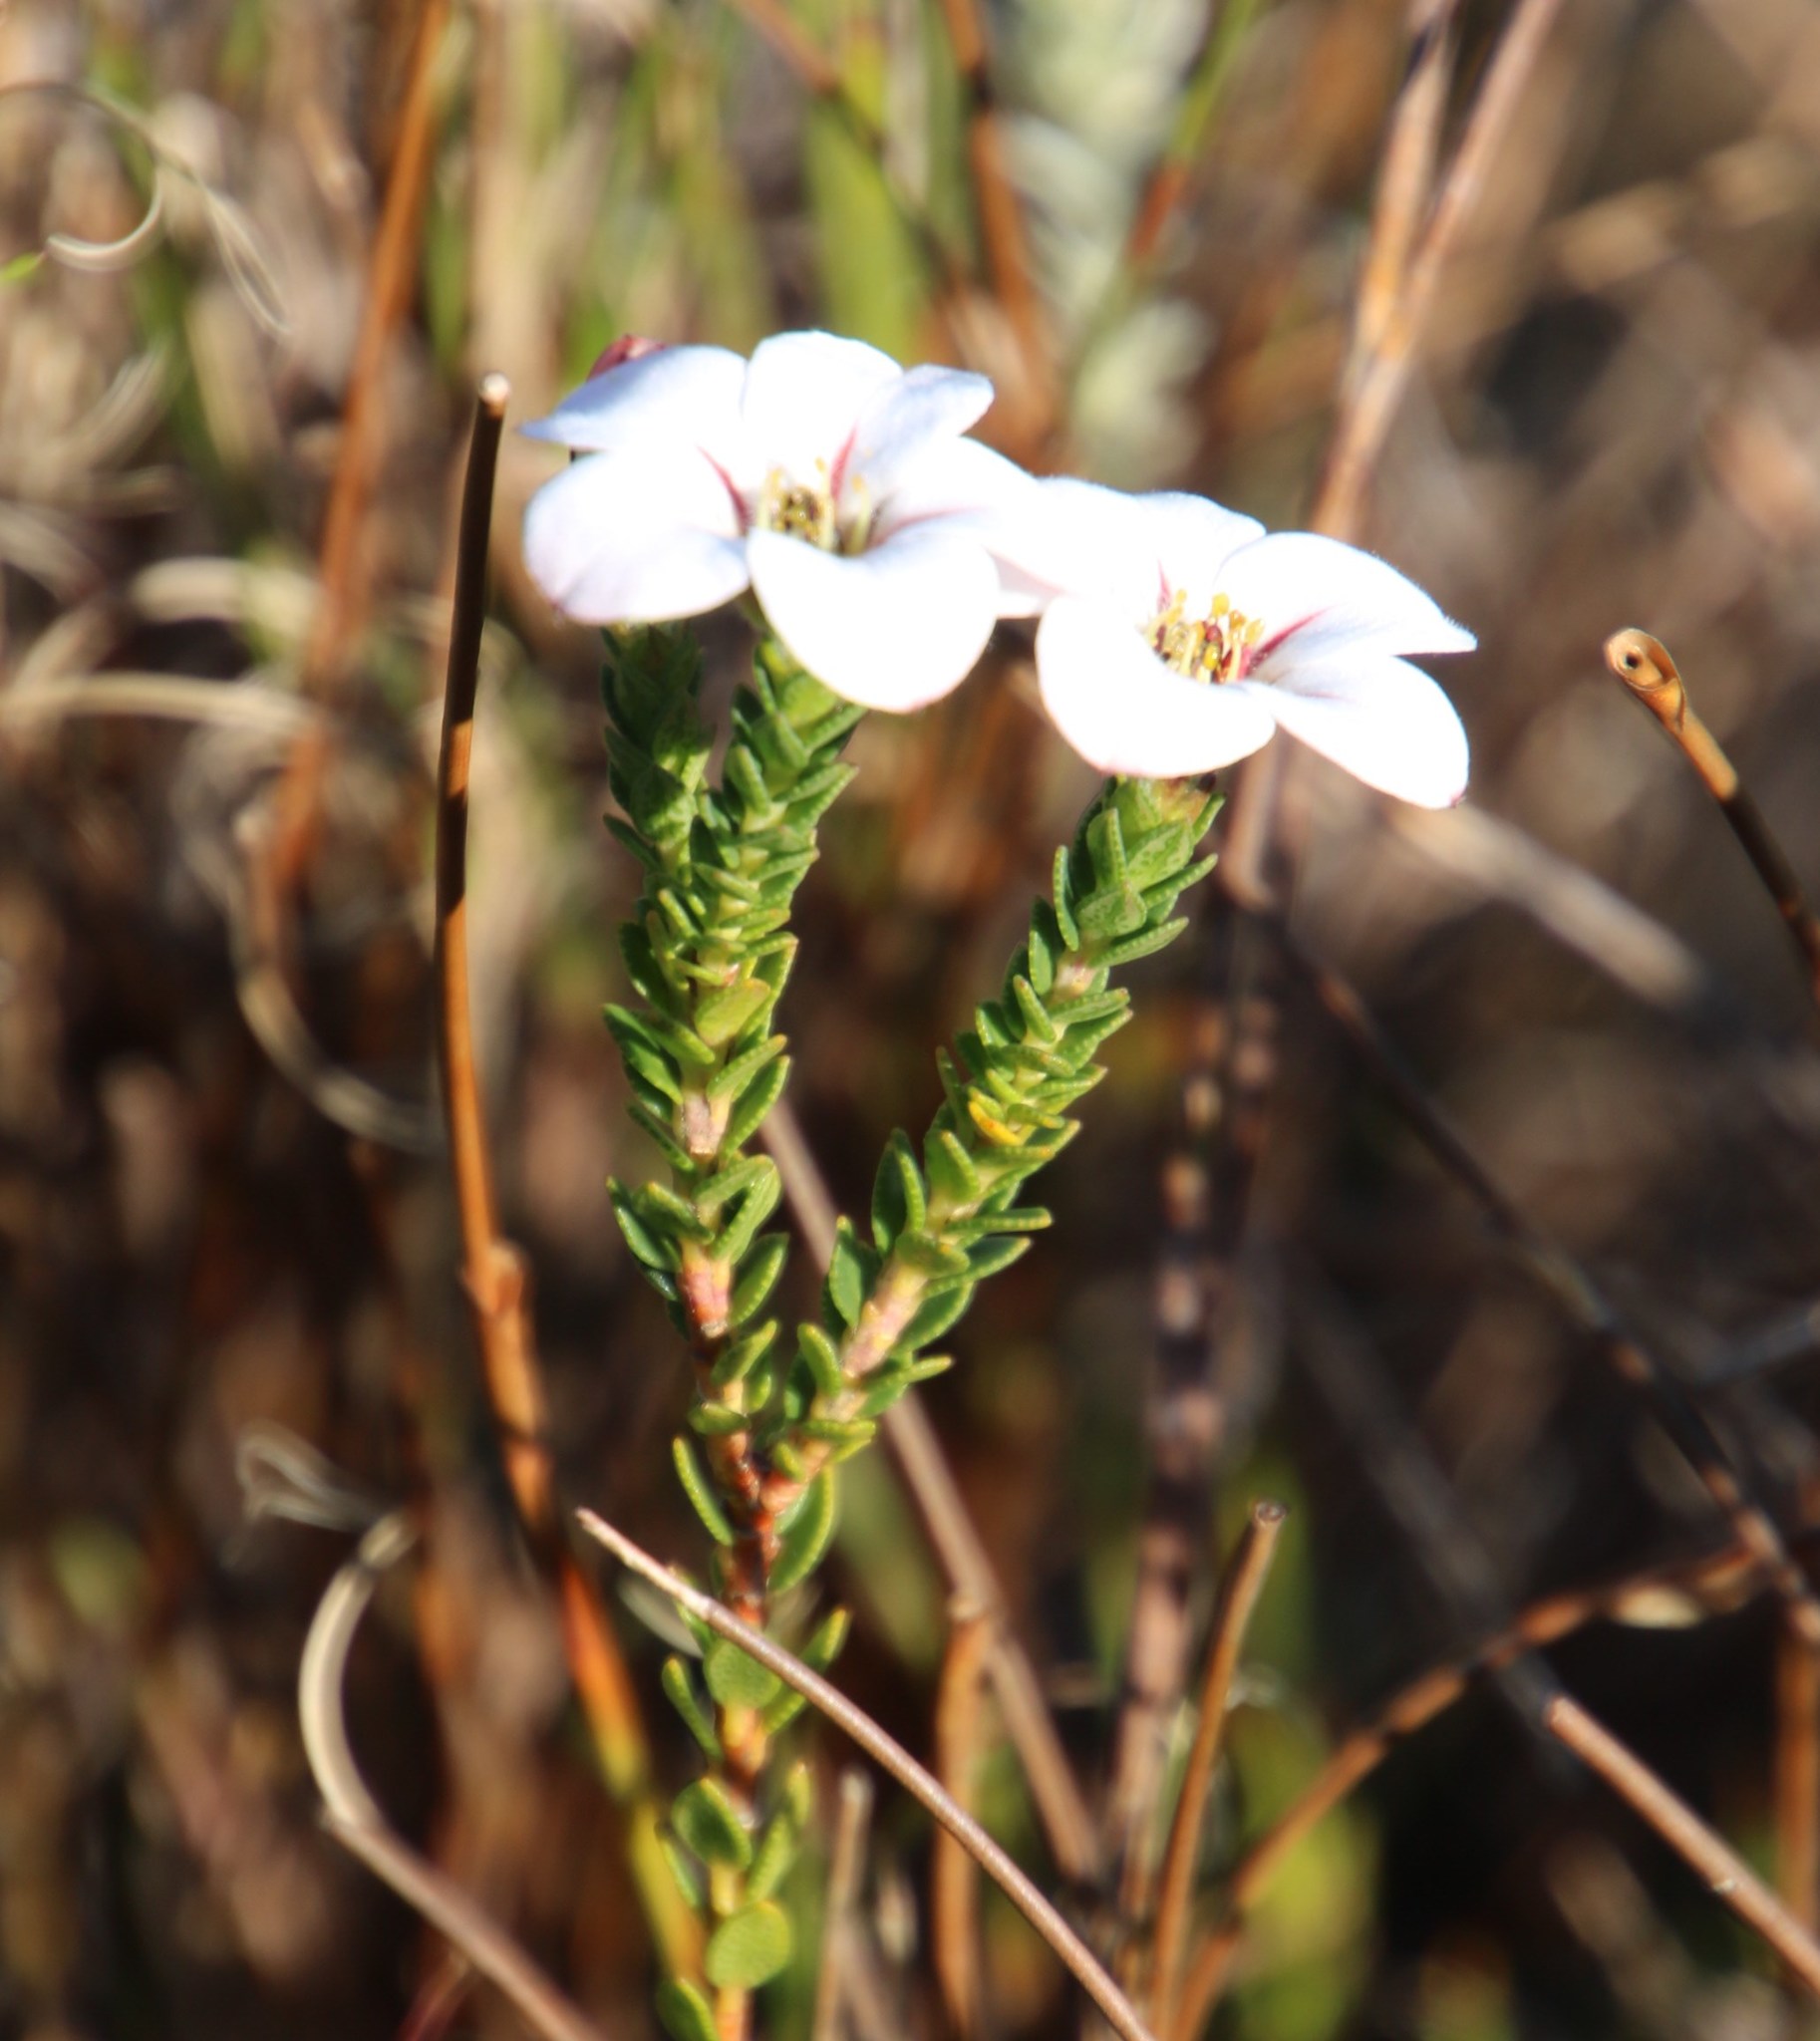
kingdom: Plantae
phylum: Tracheophyta
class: Magnoliopsida
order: Sapindales
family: Rutaceae
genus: Adenandra
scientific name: Adenandra villosa
